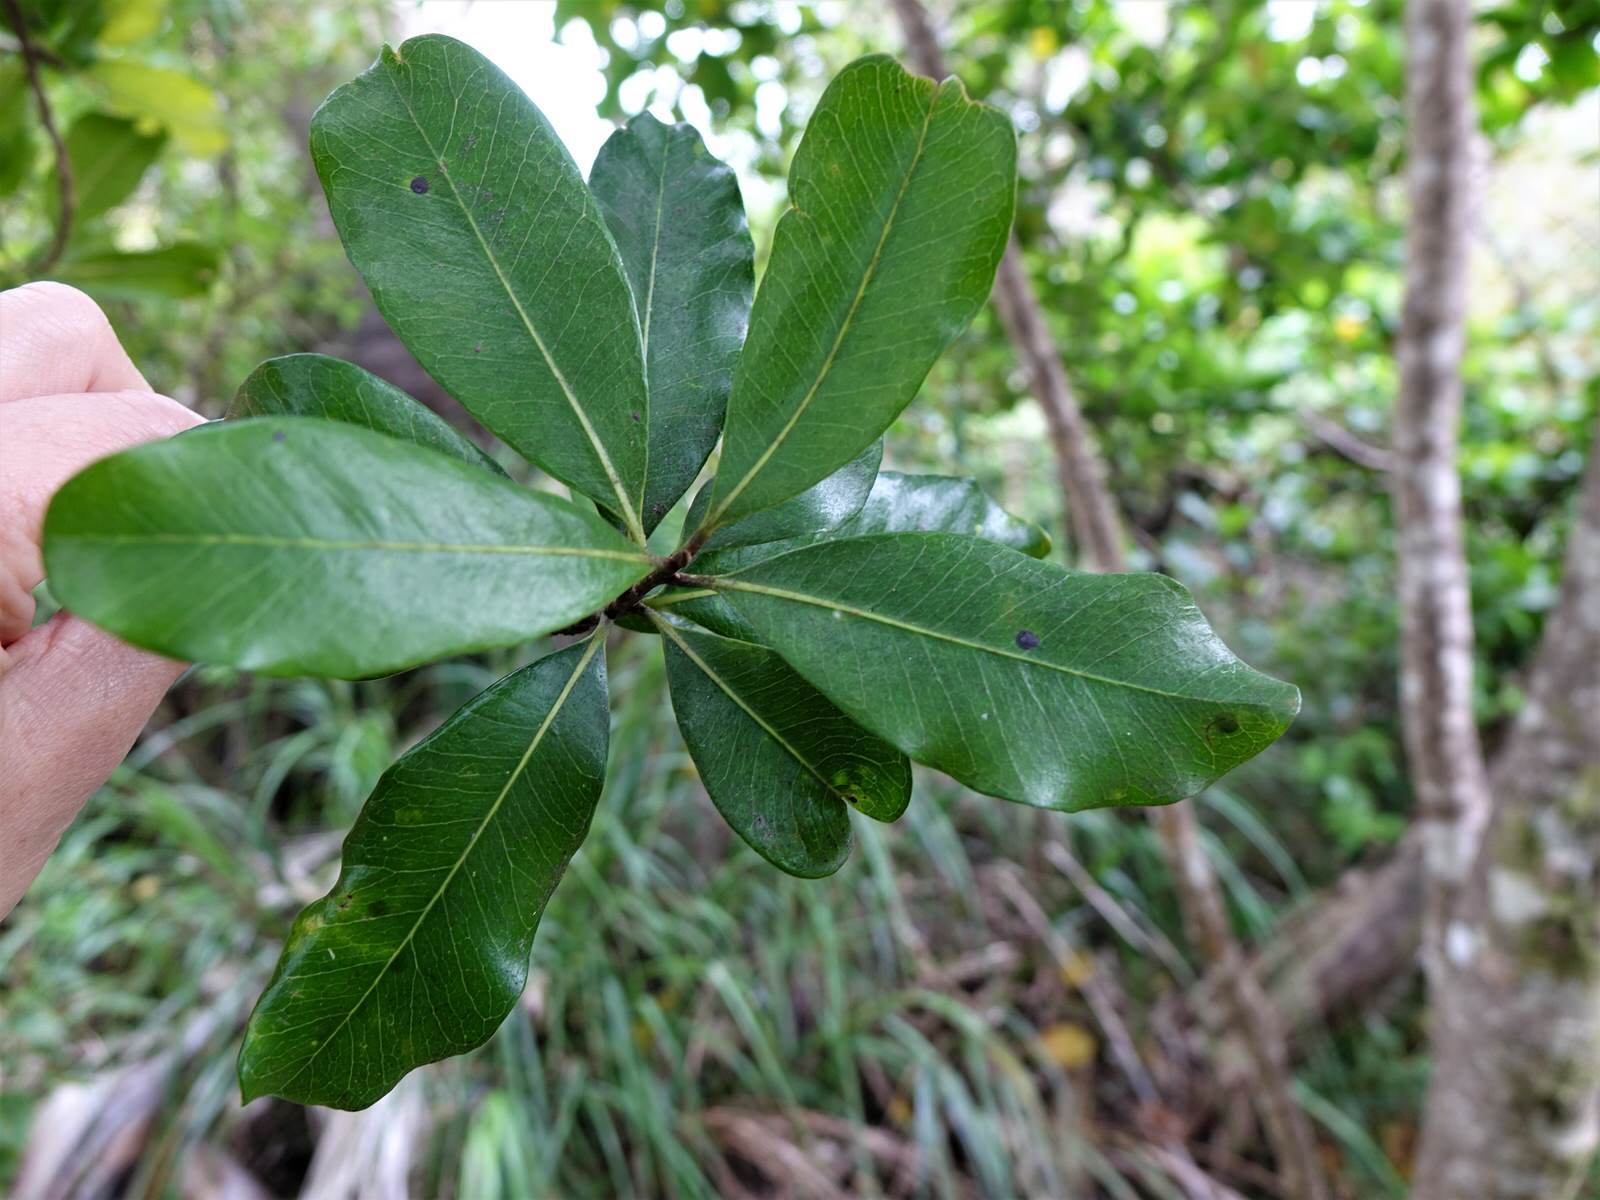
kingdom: Plantae
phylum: Tracheophyta
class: Magnoliopsida
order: Ericales
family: Sapotaceae
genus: Planchonella
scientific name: Planchonella costata
